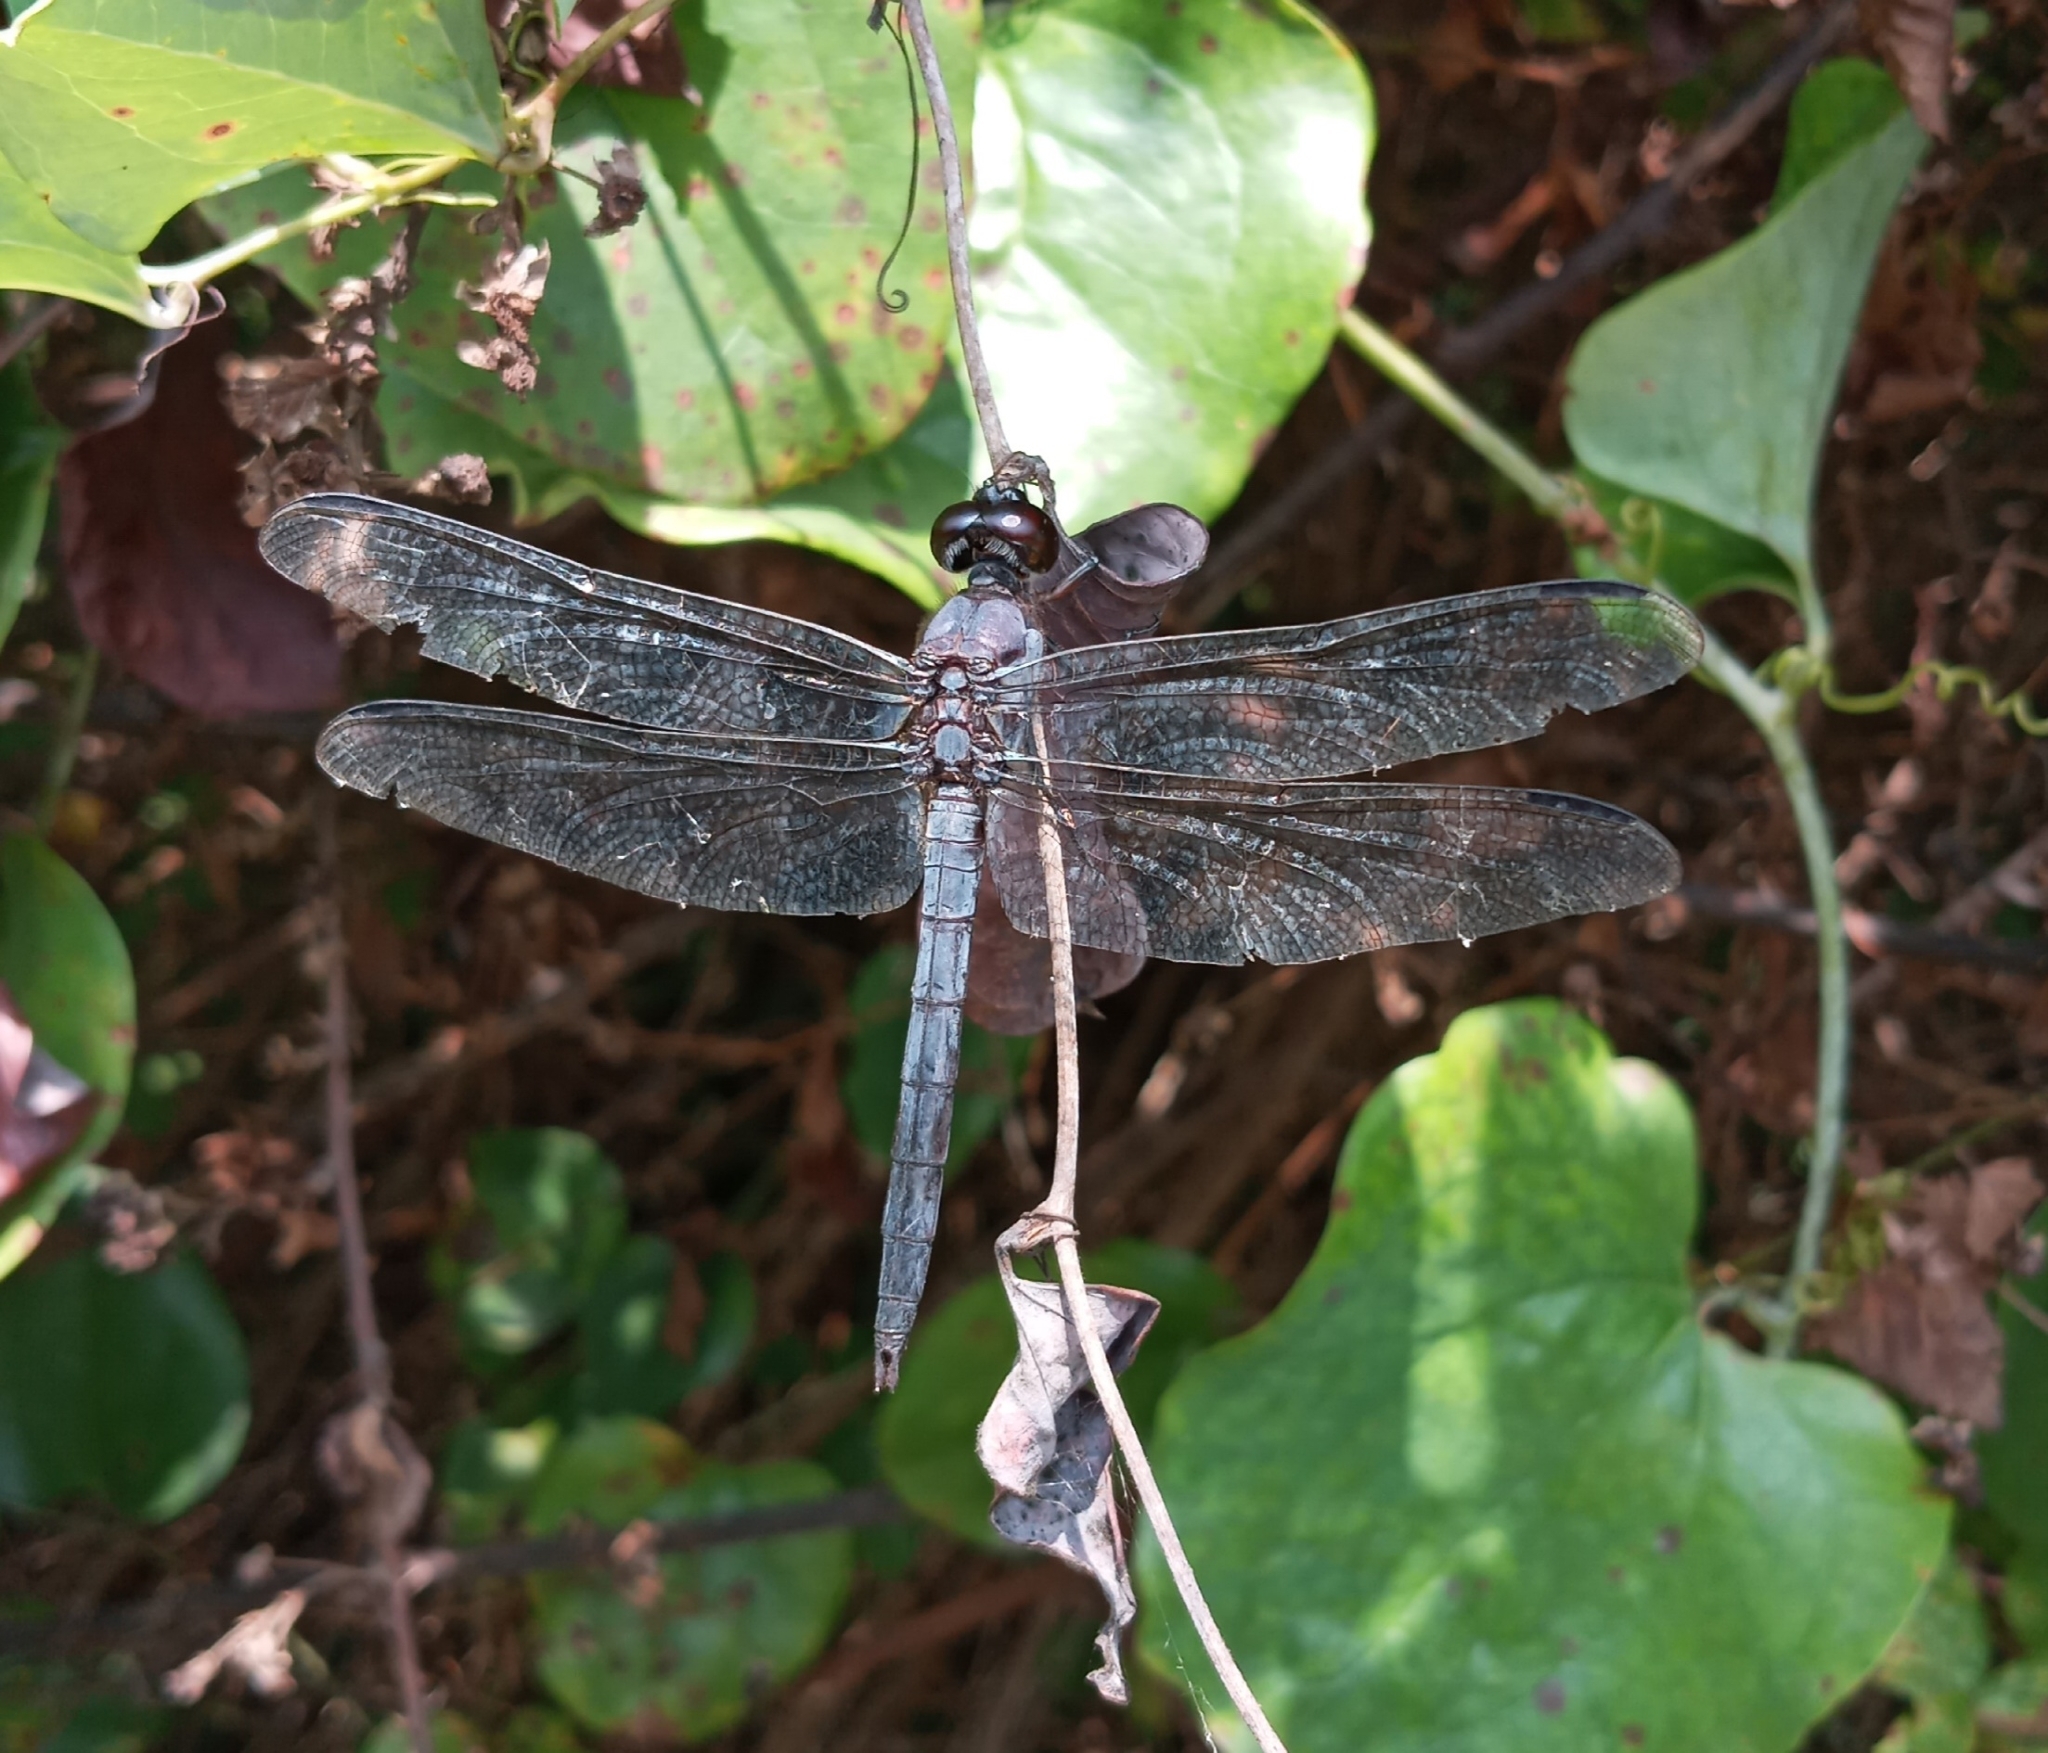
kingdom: Animalia
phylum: Arthropoda
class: Insecta
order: Odonata
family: Libellulidae
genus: Libellula
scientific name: Libellula incesta
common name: Slaty skimmer
